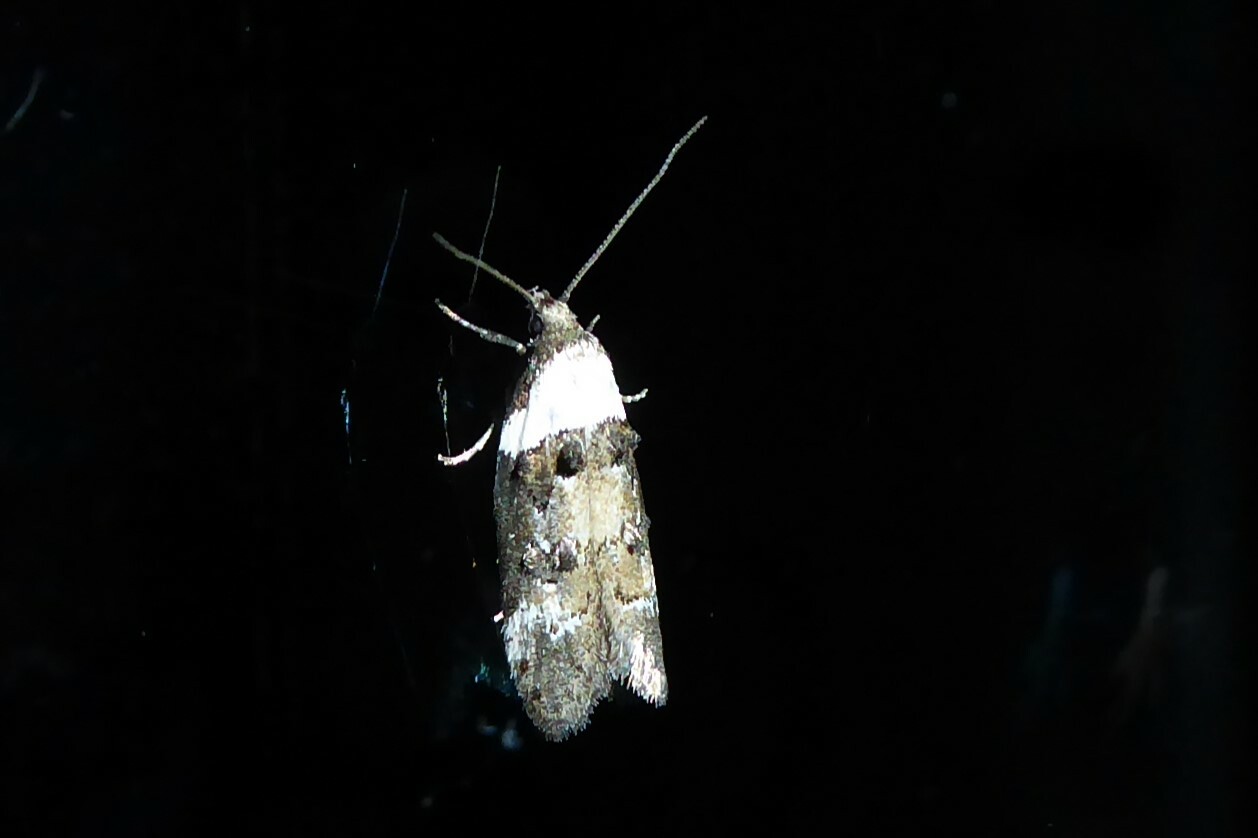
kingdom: Animalia
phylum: Arthropoda
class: Insecta
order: Lepidoptera
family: Oecophoridae
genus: Trachypepla
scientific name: Trachypepla conspicuella
